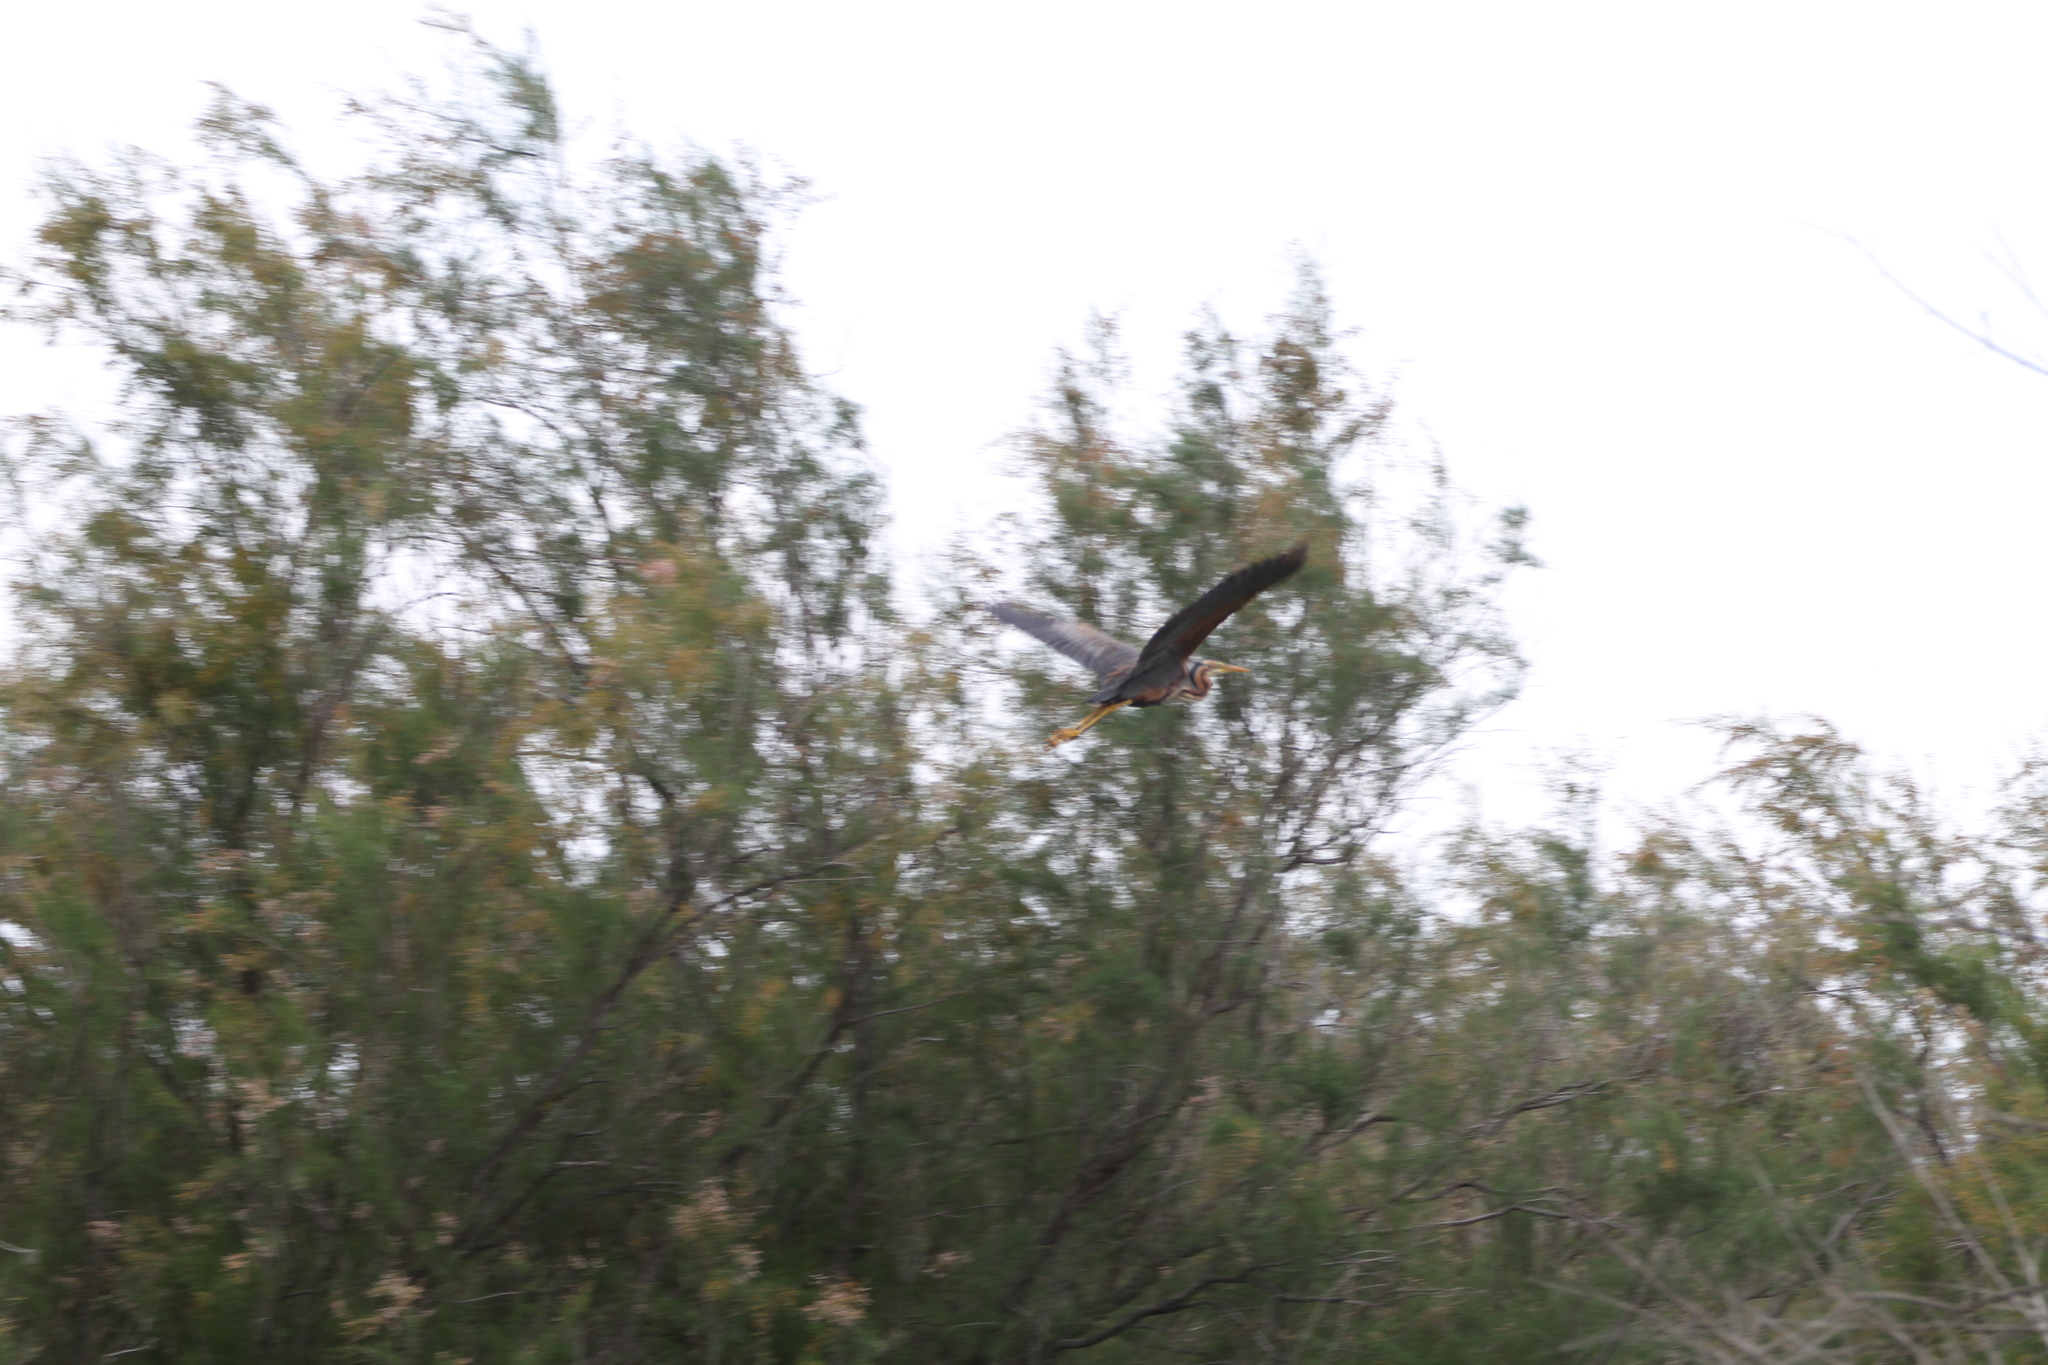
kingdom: Animalia
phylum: Chordata
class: Aves
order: Pelecaniformes
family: Ardeidae
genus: Ardea
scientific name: Ardea purpurea
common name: Purple heron
